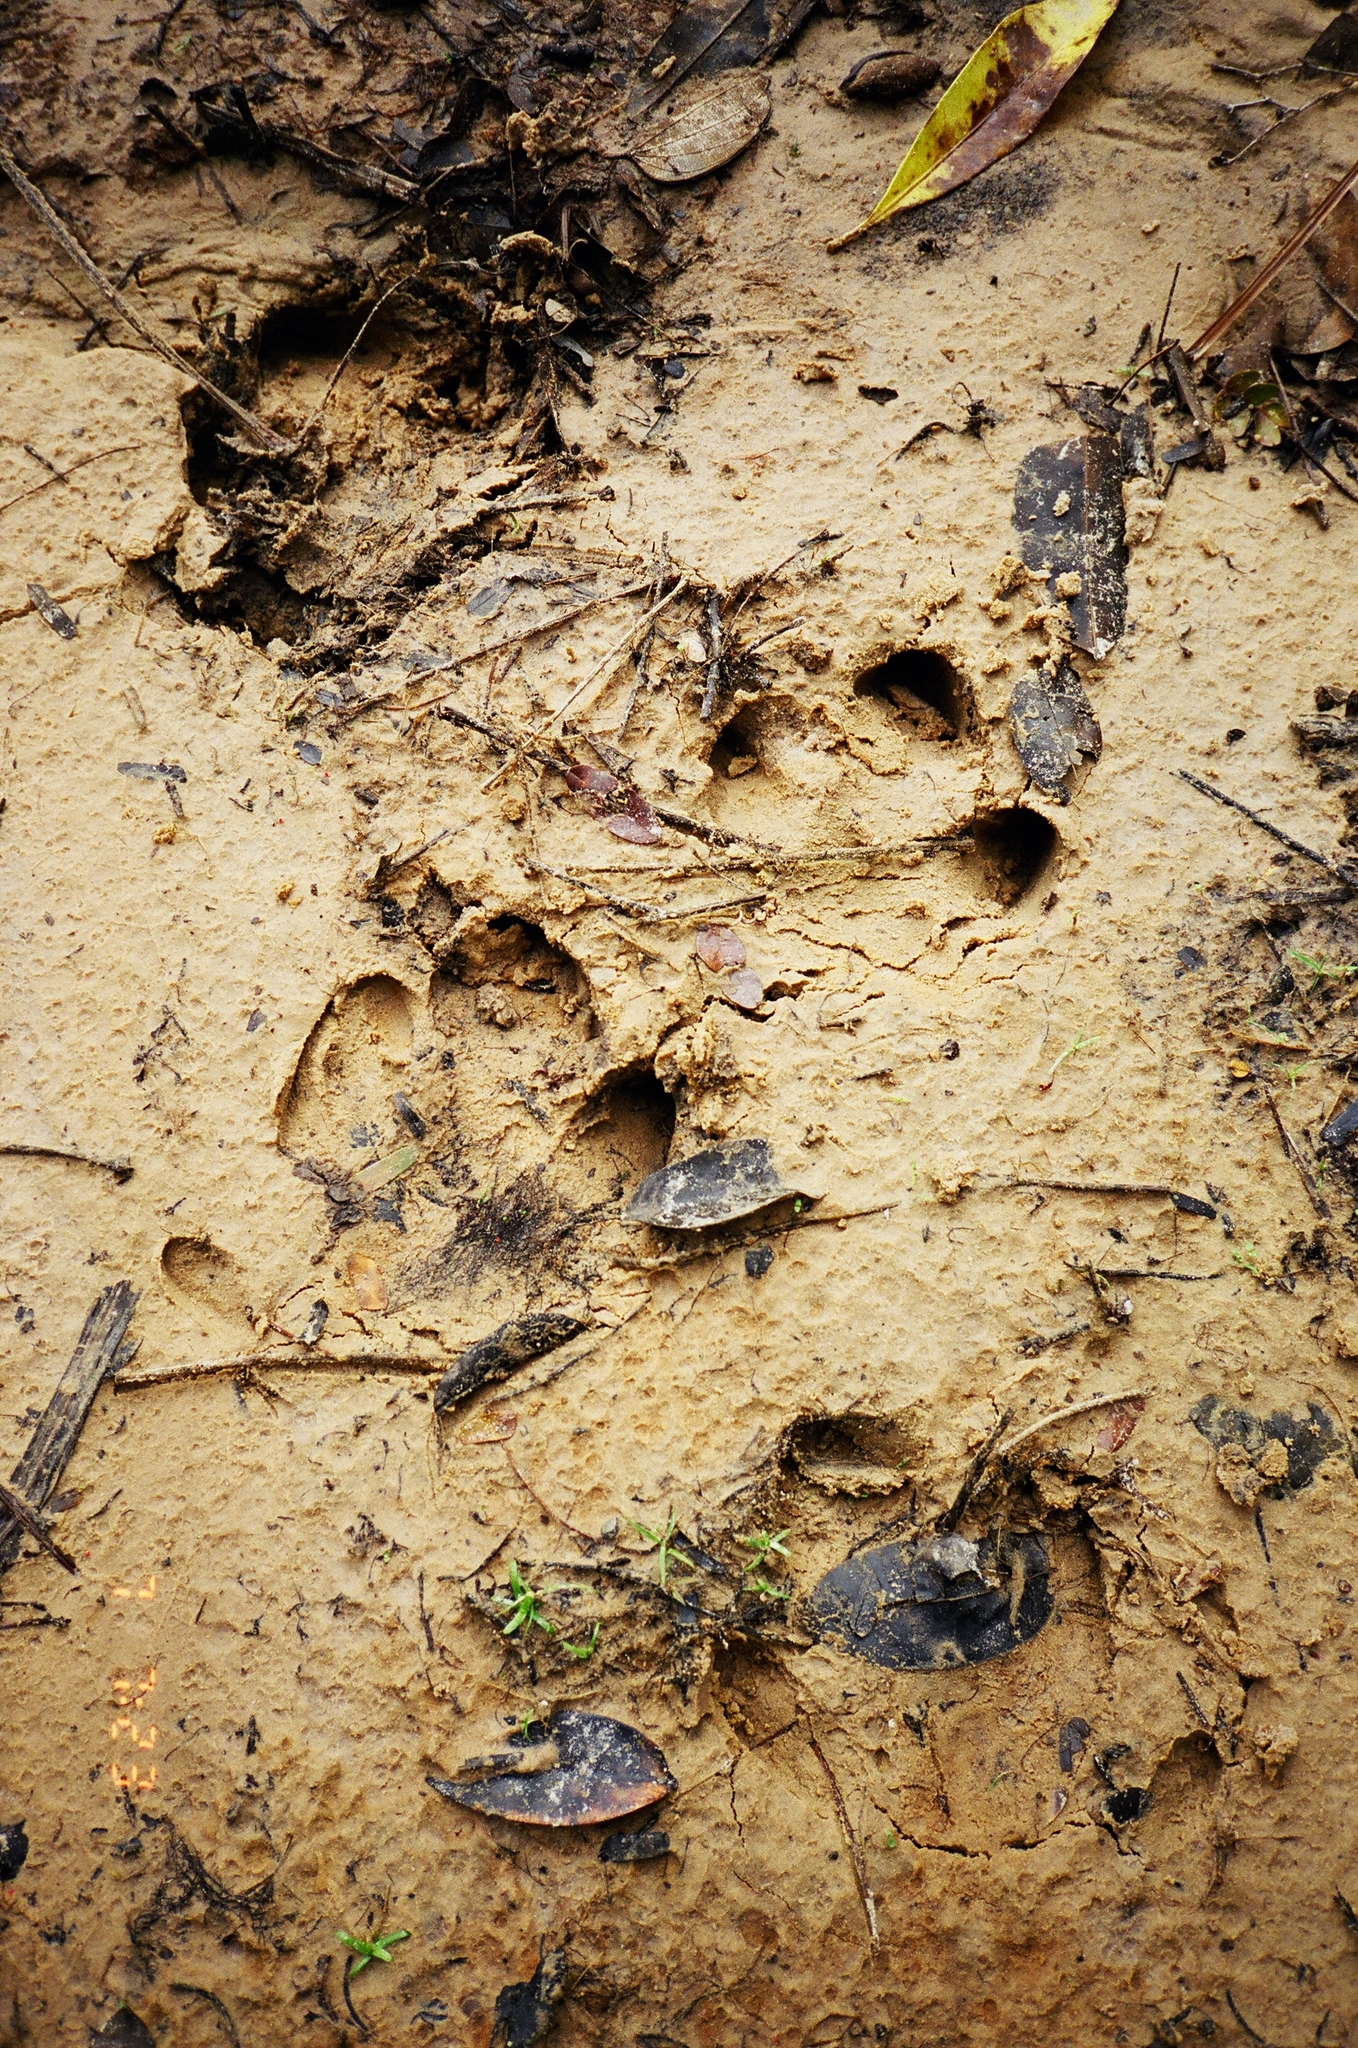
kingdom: Animalia
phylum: Chordata
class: Mammalia
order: Perissodactyla
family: Tapiridae
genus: Tapirus
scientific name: Tapirus terrestris
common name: Brazilian tapir
